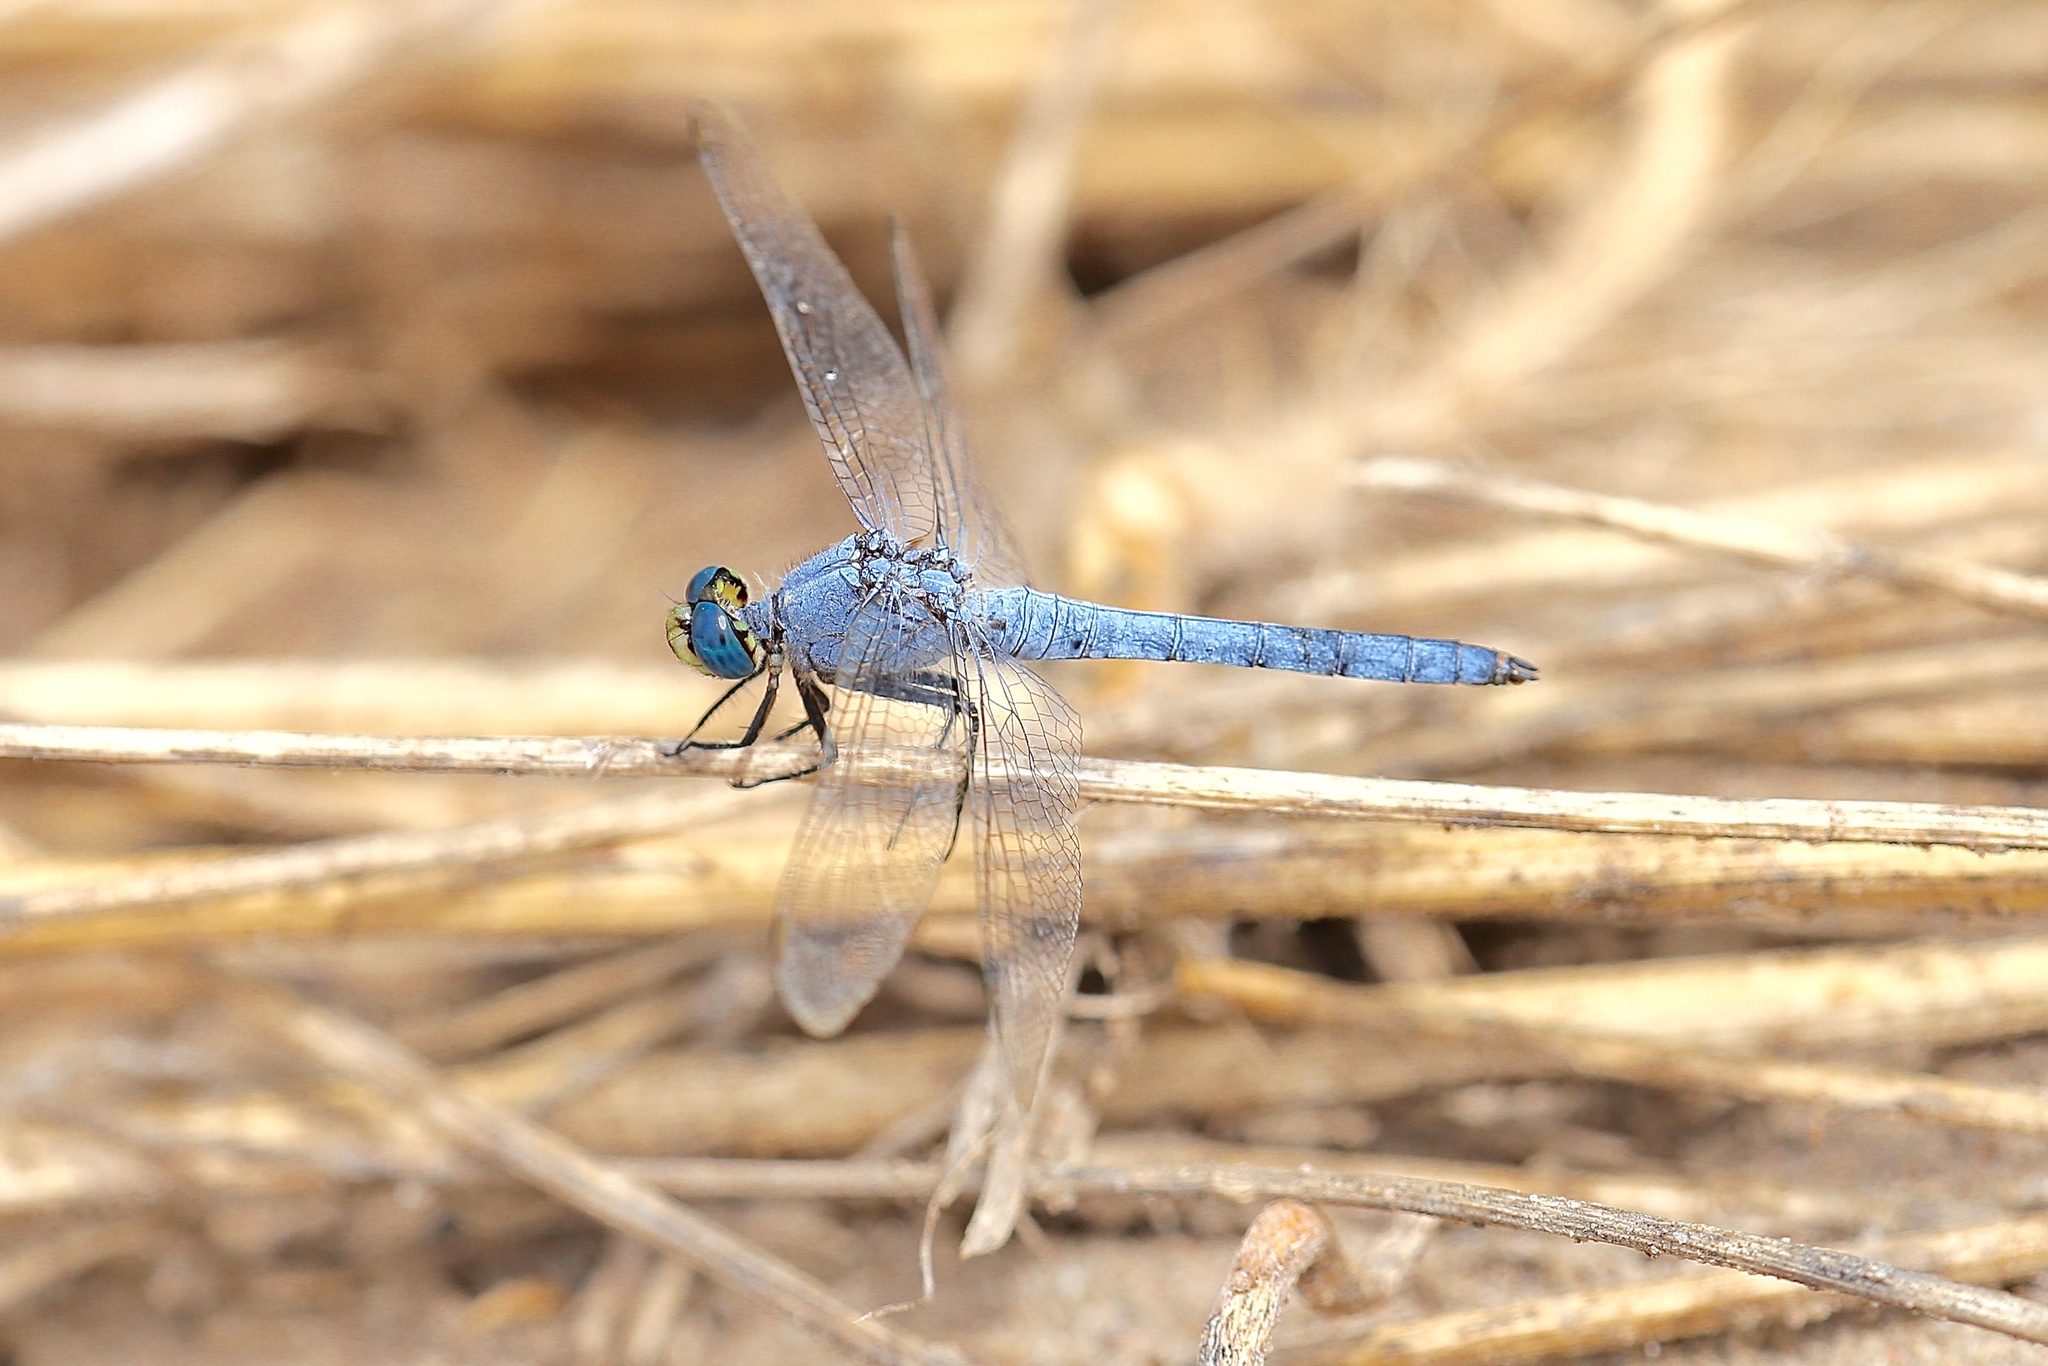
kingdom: Animalia
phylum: Arthropoda
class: Insecta
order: Odonata
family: Libellulidae
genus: Erythemis
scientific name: Erythemis collocata
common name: Western pondhawk
